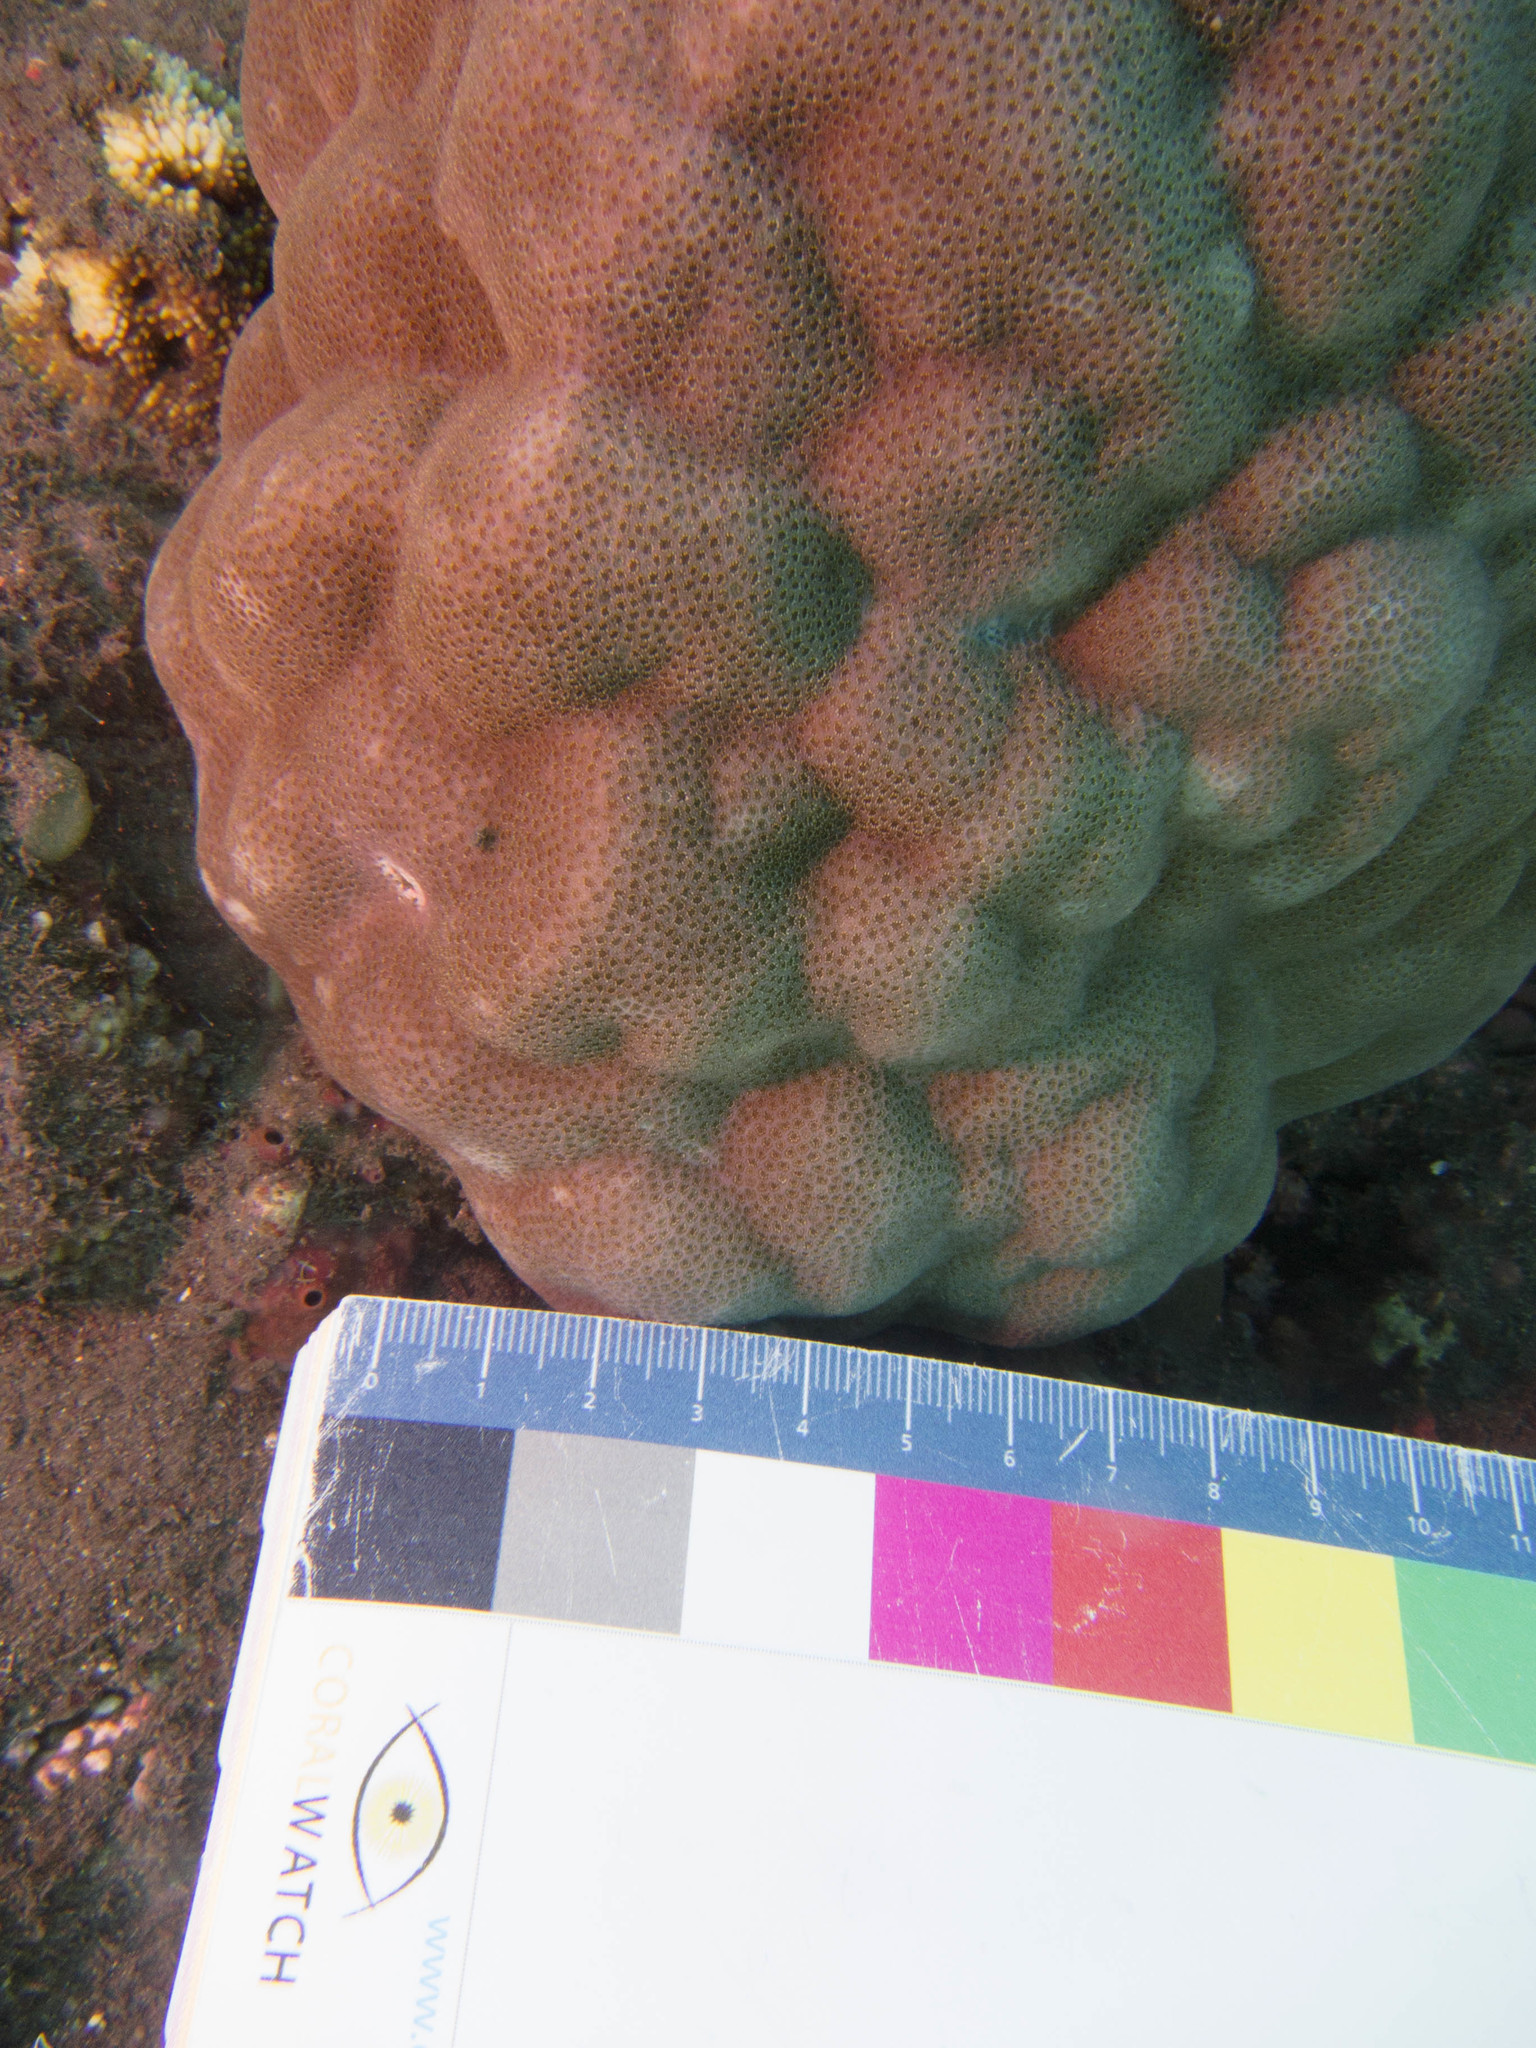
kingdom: Animalia
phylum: Cnidaria
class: Anthozoa
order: Scleractinia
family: Poritidae
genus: Porites
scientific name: Porites lobata
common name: Hump coral
